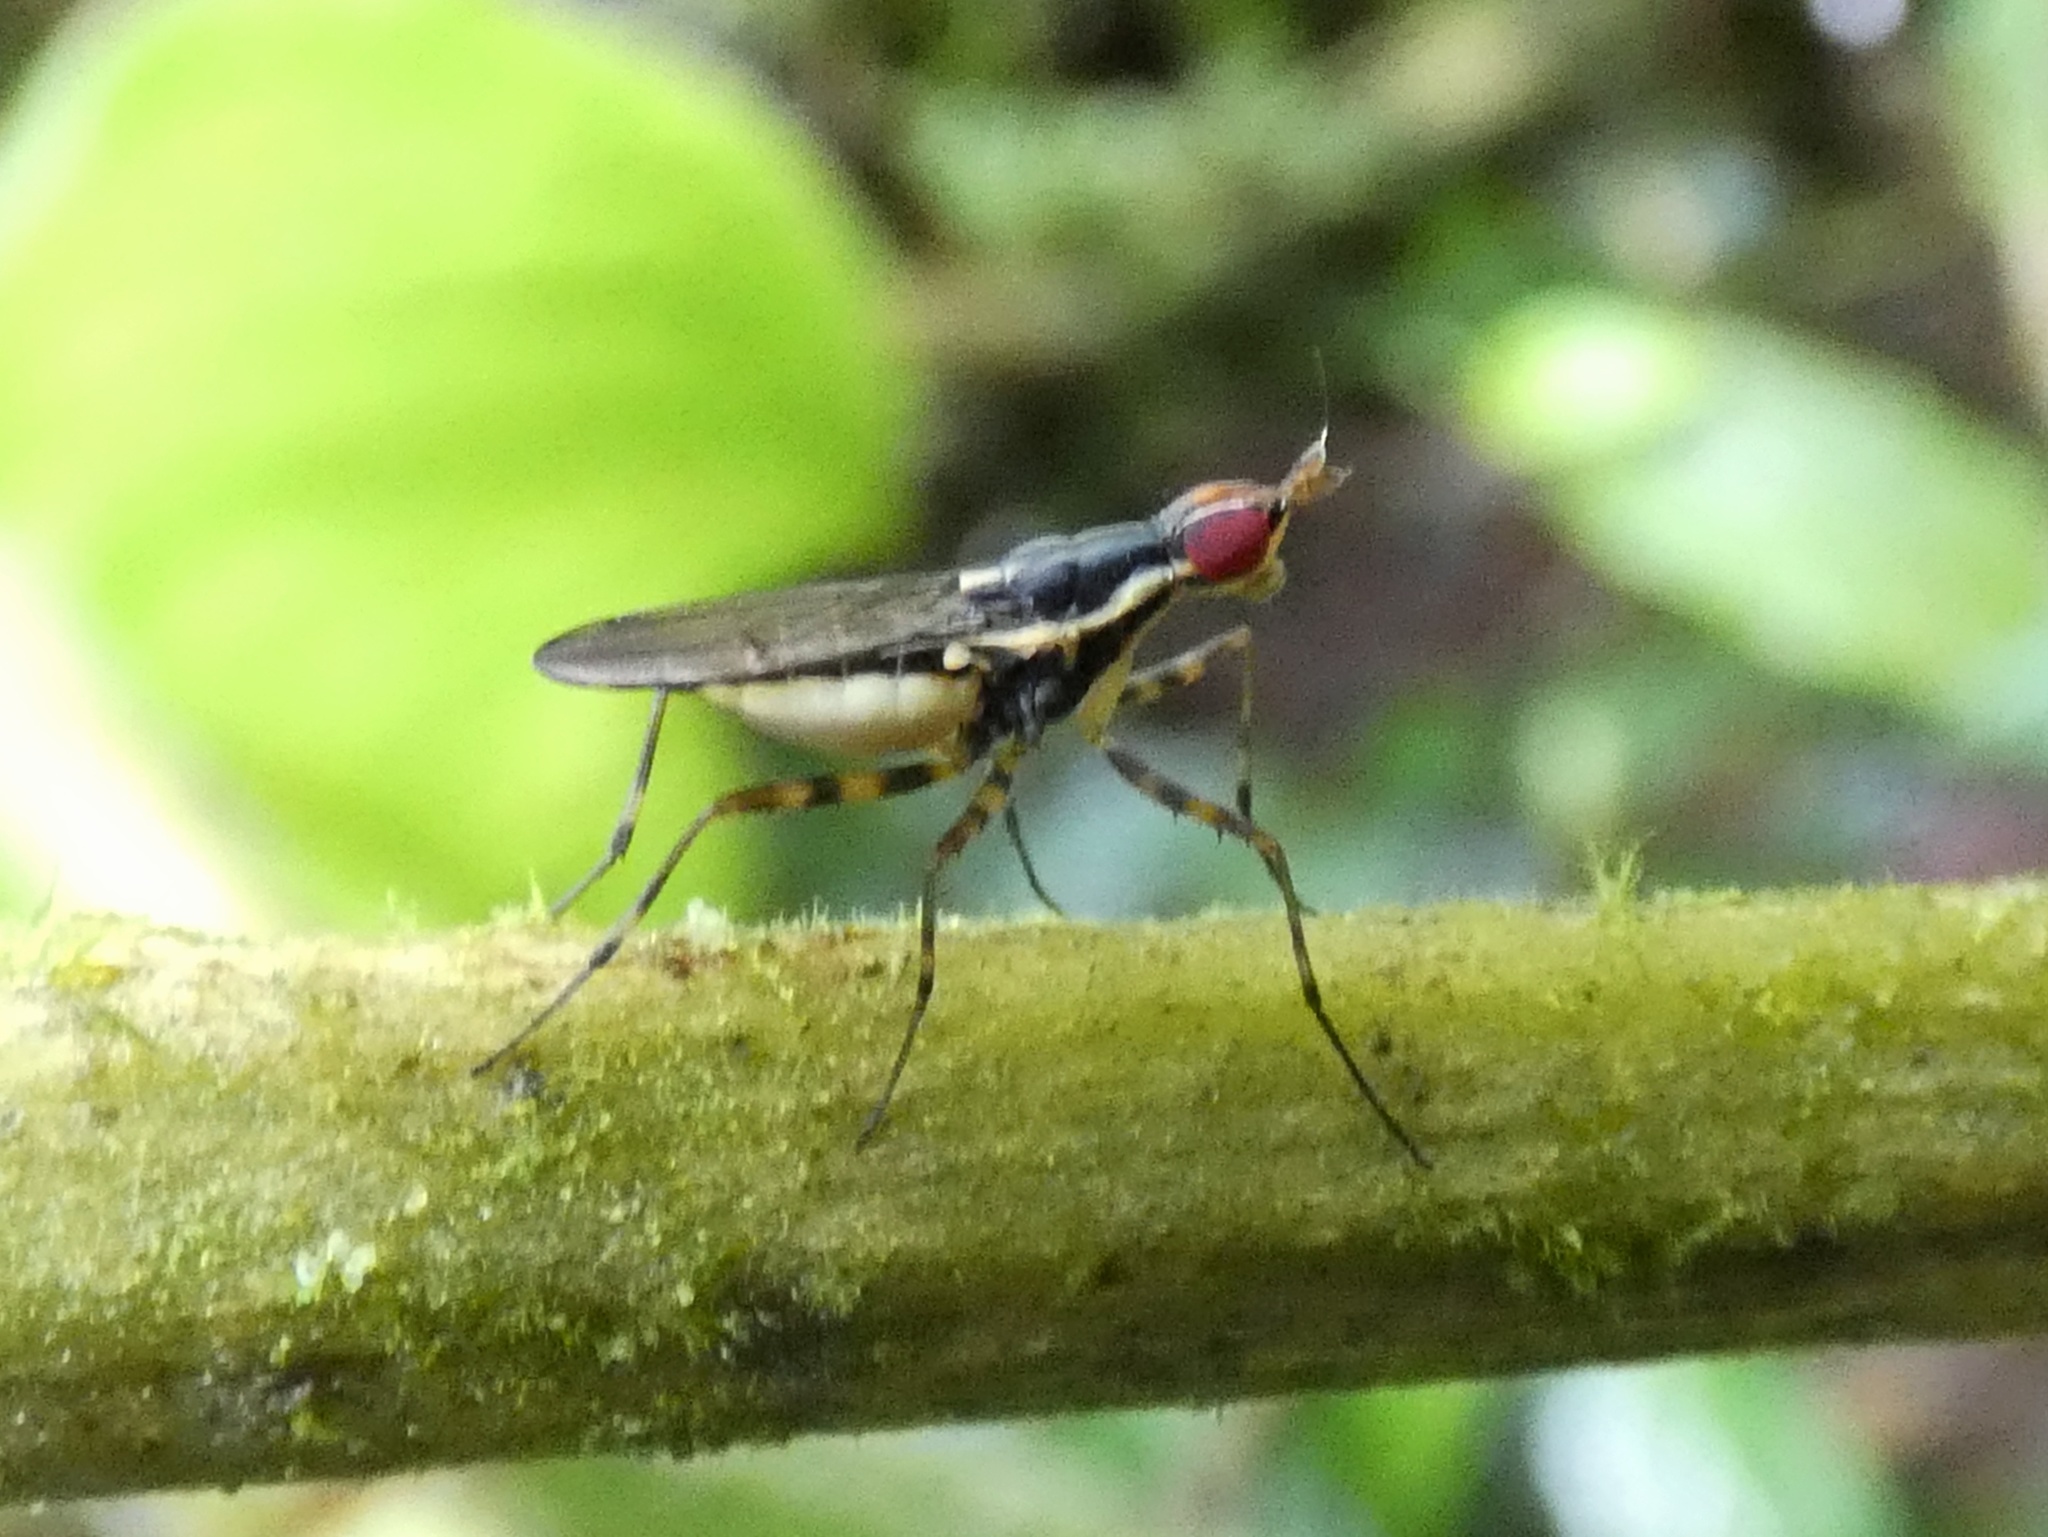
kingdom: Animalia
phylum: Arthropoda
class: Insecta
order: Diptera
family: Neriidae
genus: Glyphidops
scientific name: Glyphidops durus
